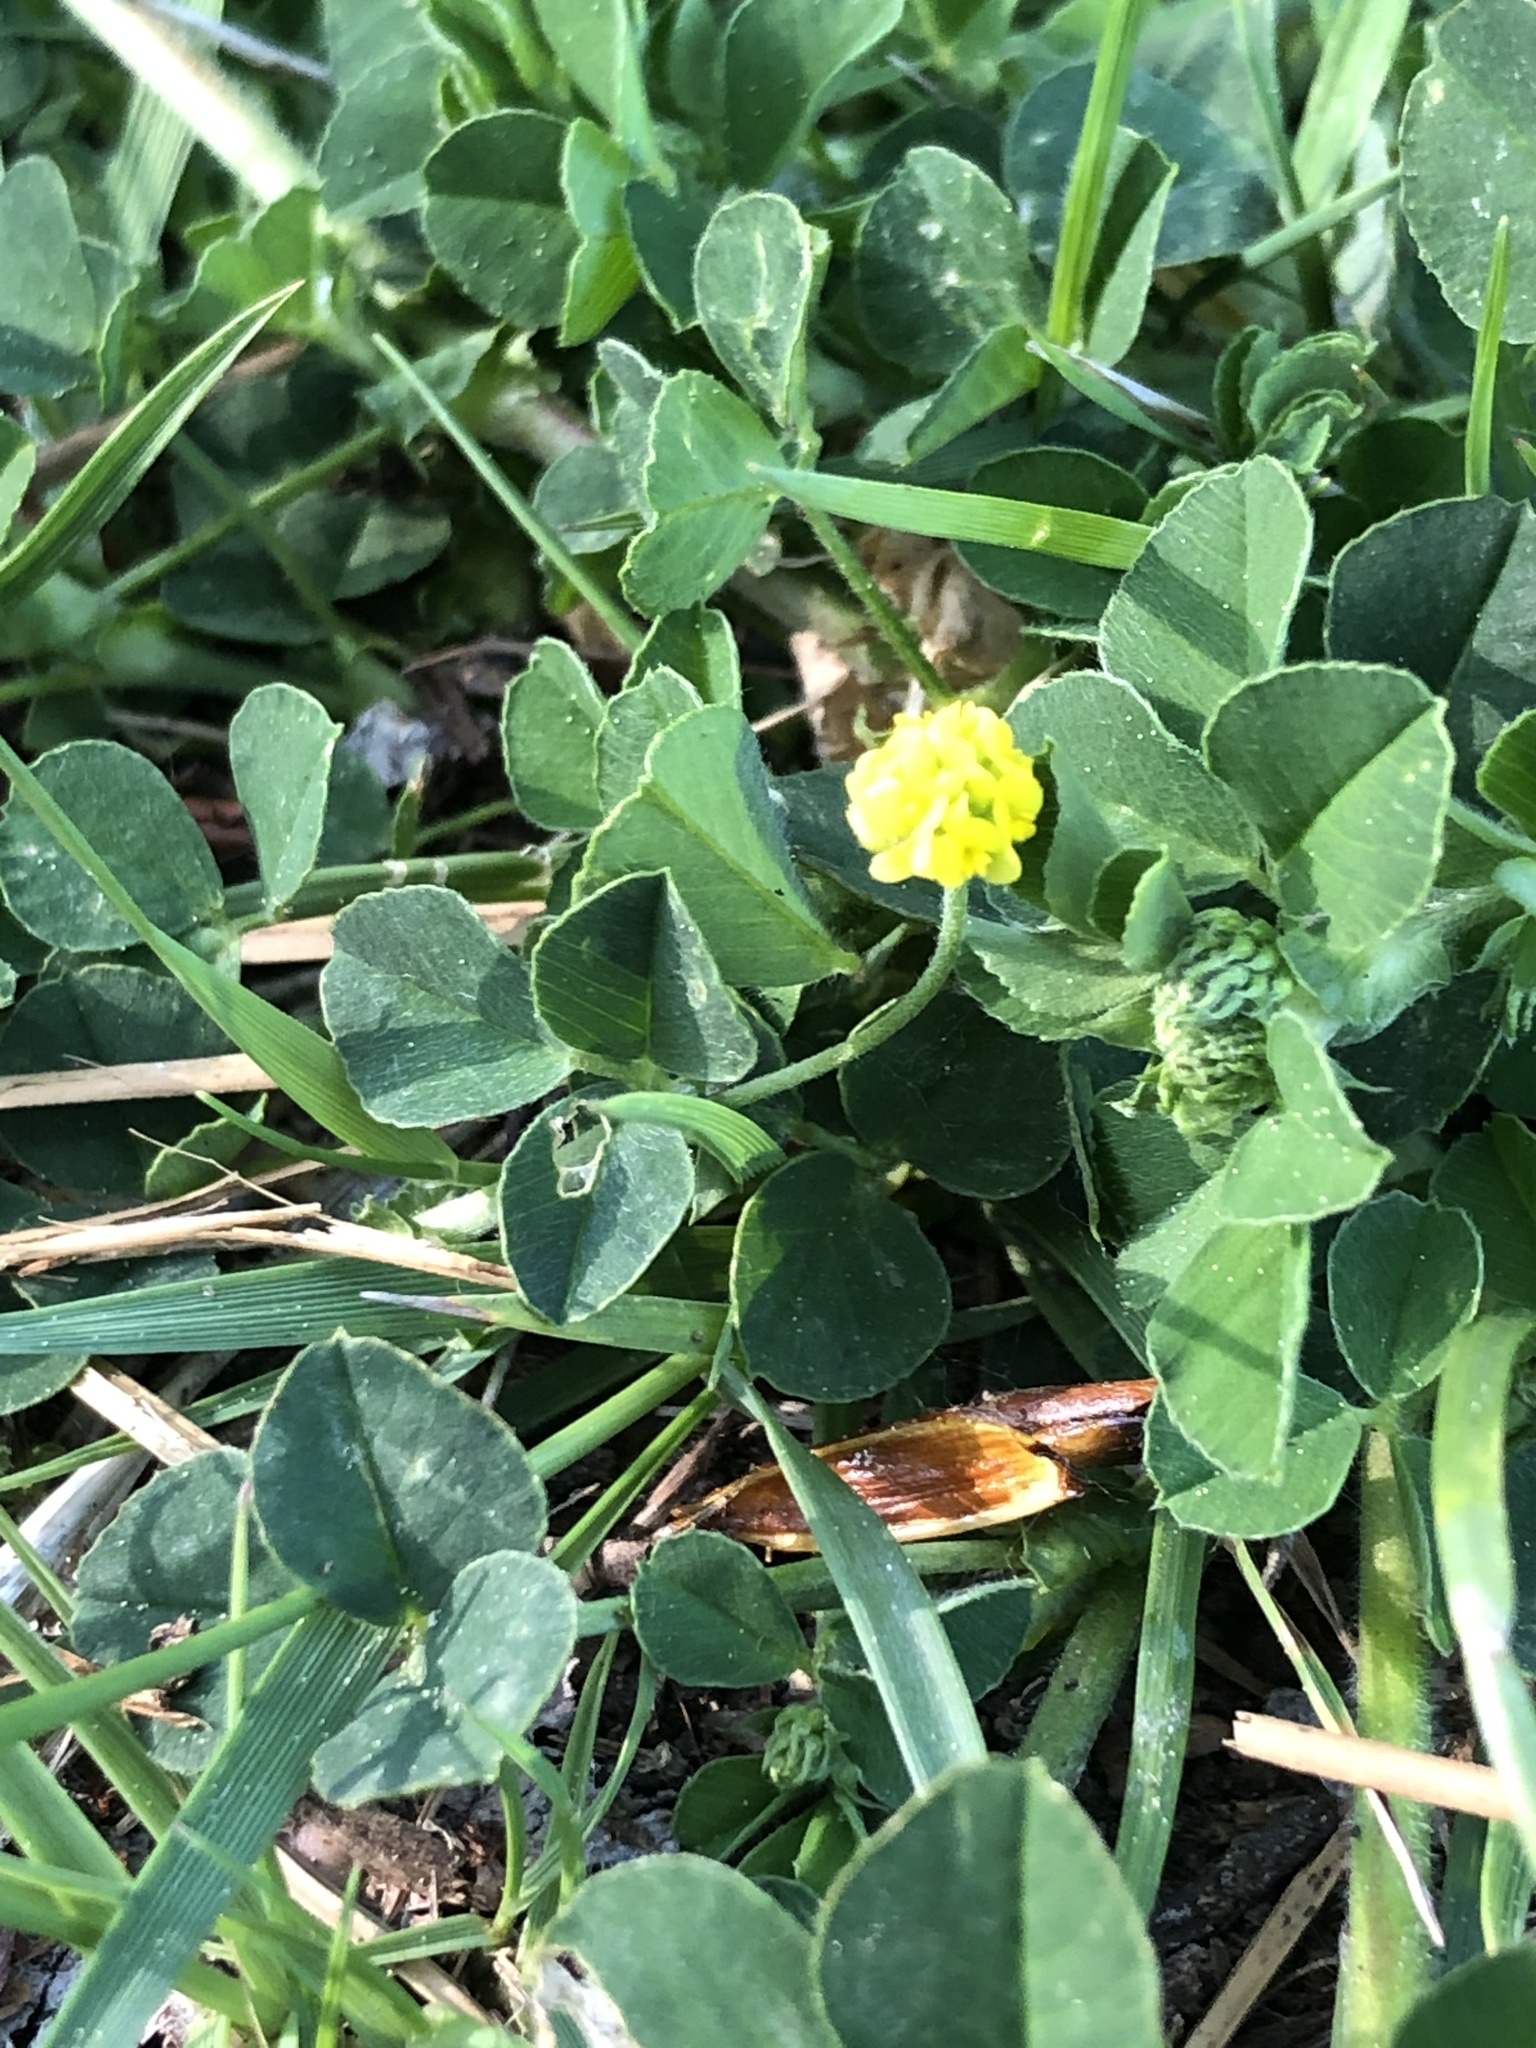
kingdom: Plantae
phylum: Tracheophyta
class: Magnoliopsida
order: Fabales
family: Fabaceae
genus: Medicago
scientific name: Medicago lupulina
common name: Black medick
